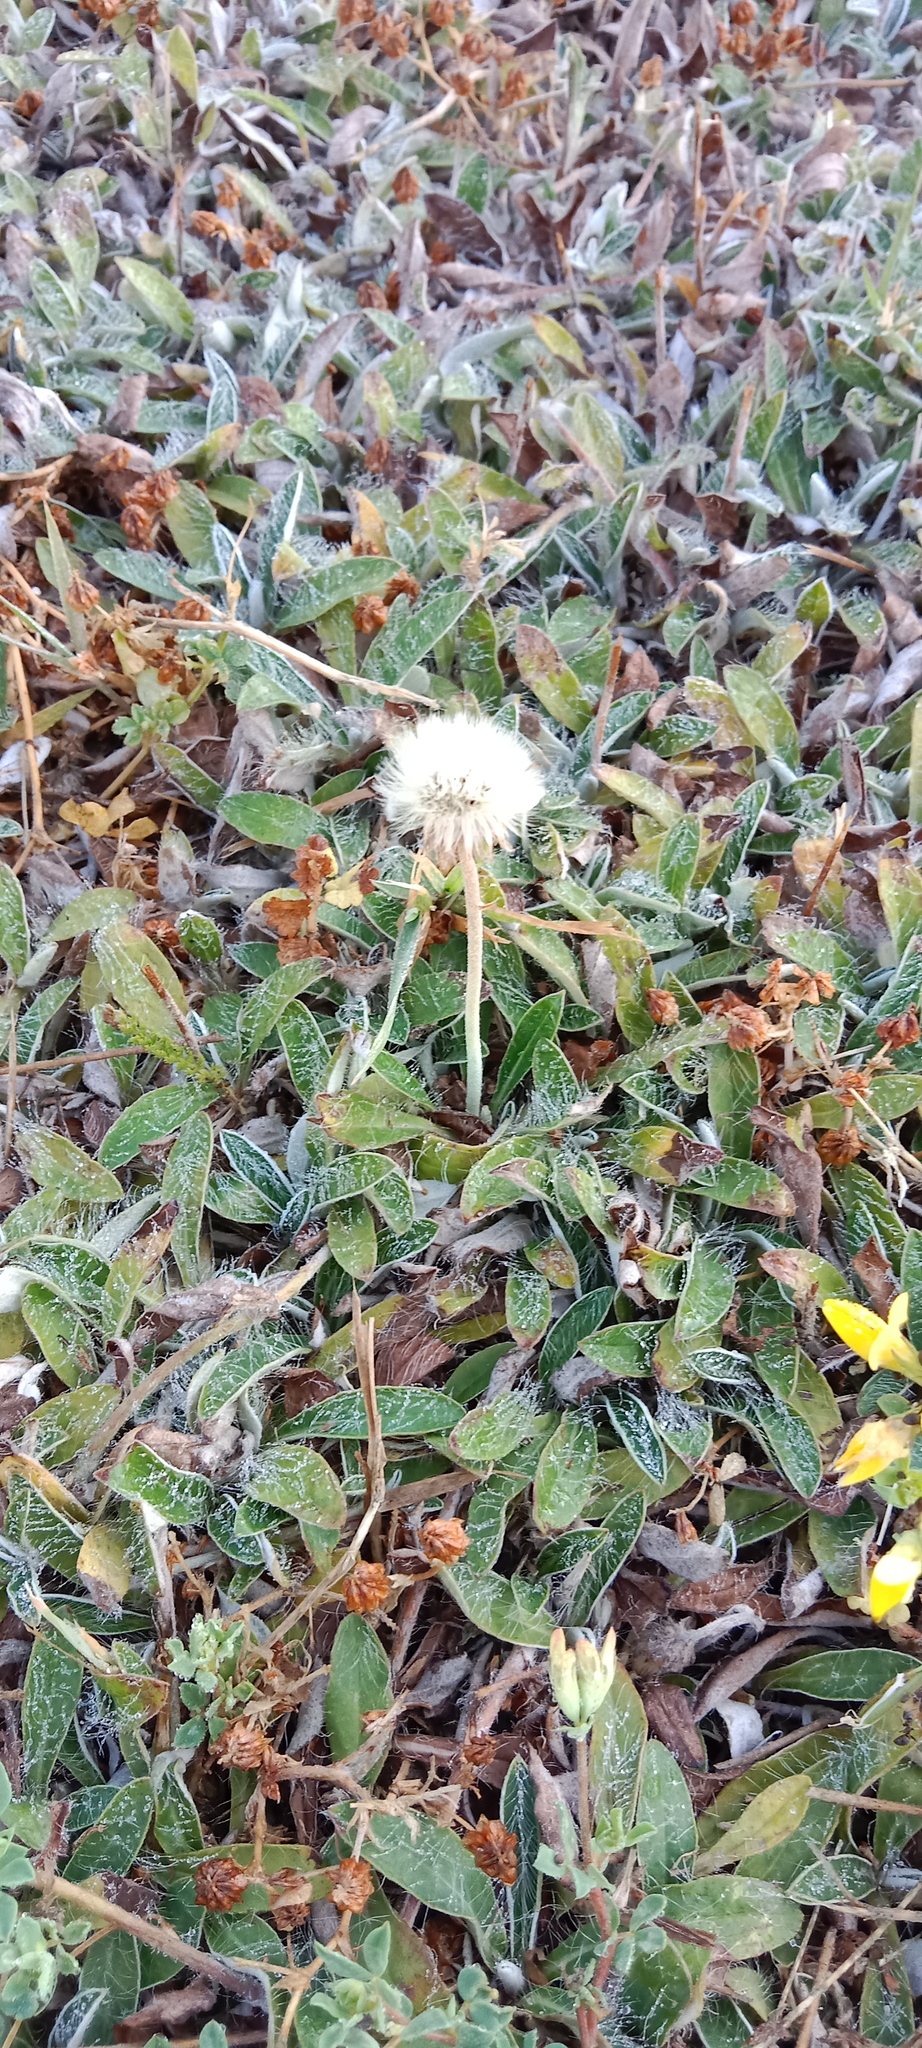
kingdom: Plantae
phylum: Tracheophyta
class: Magnoliopsida
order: Asterales
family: Asteraceae
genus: Pilosella
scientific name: Pilosella officinarum
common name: Mouse-ear hawkweed
